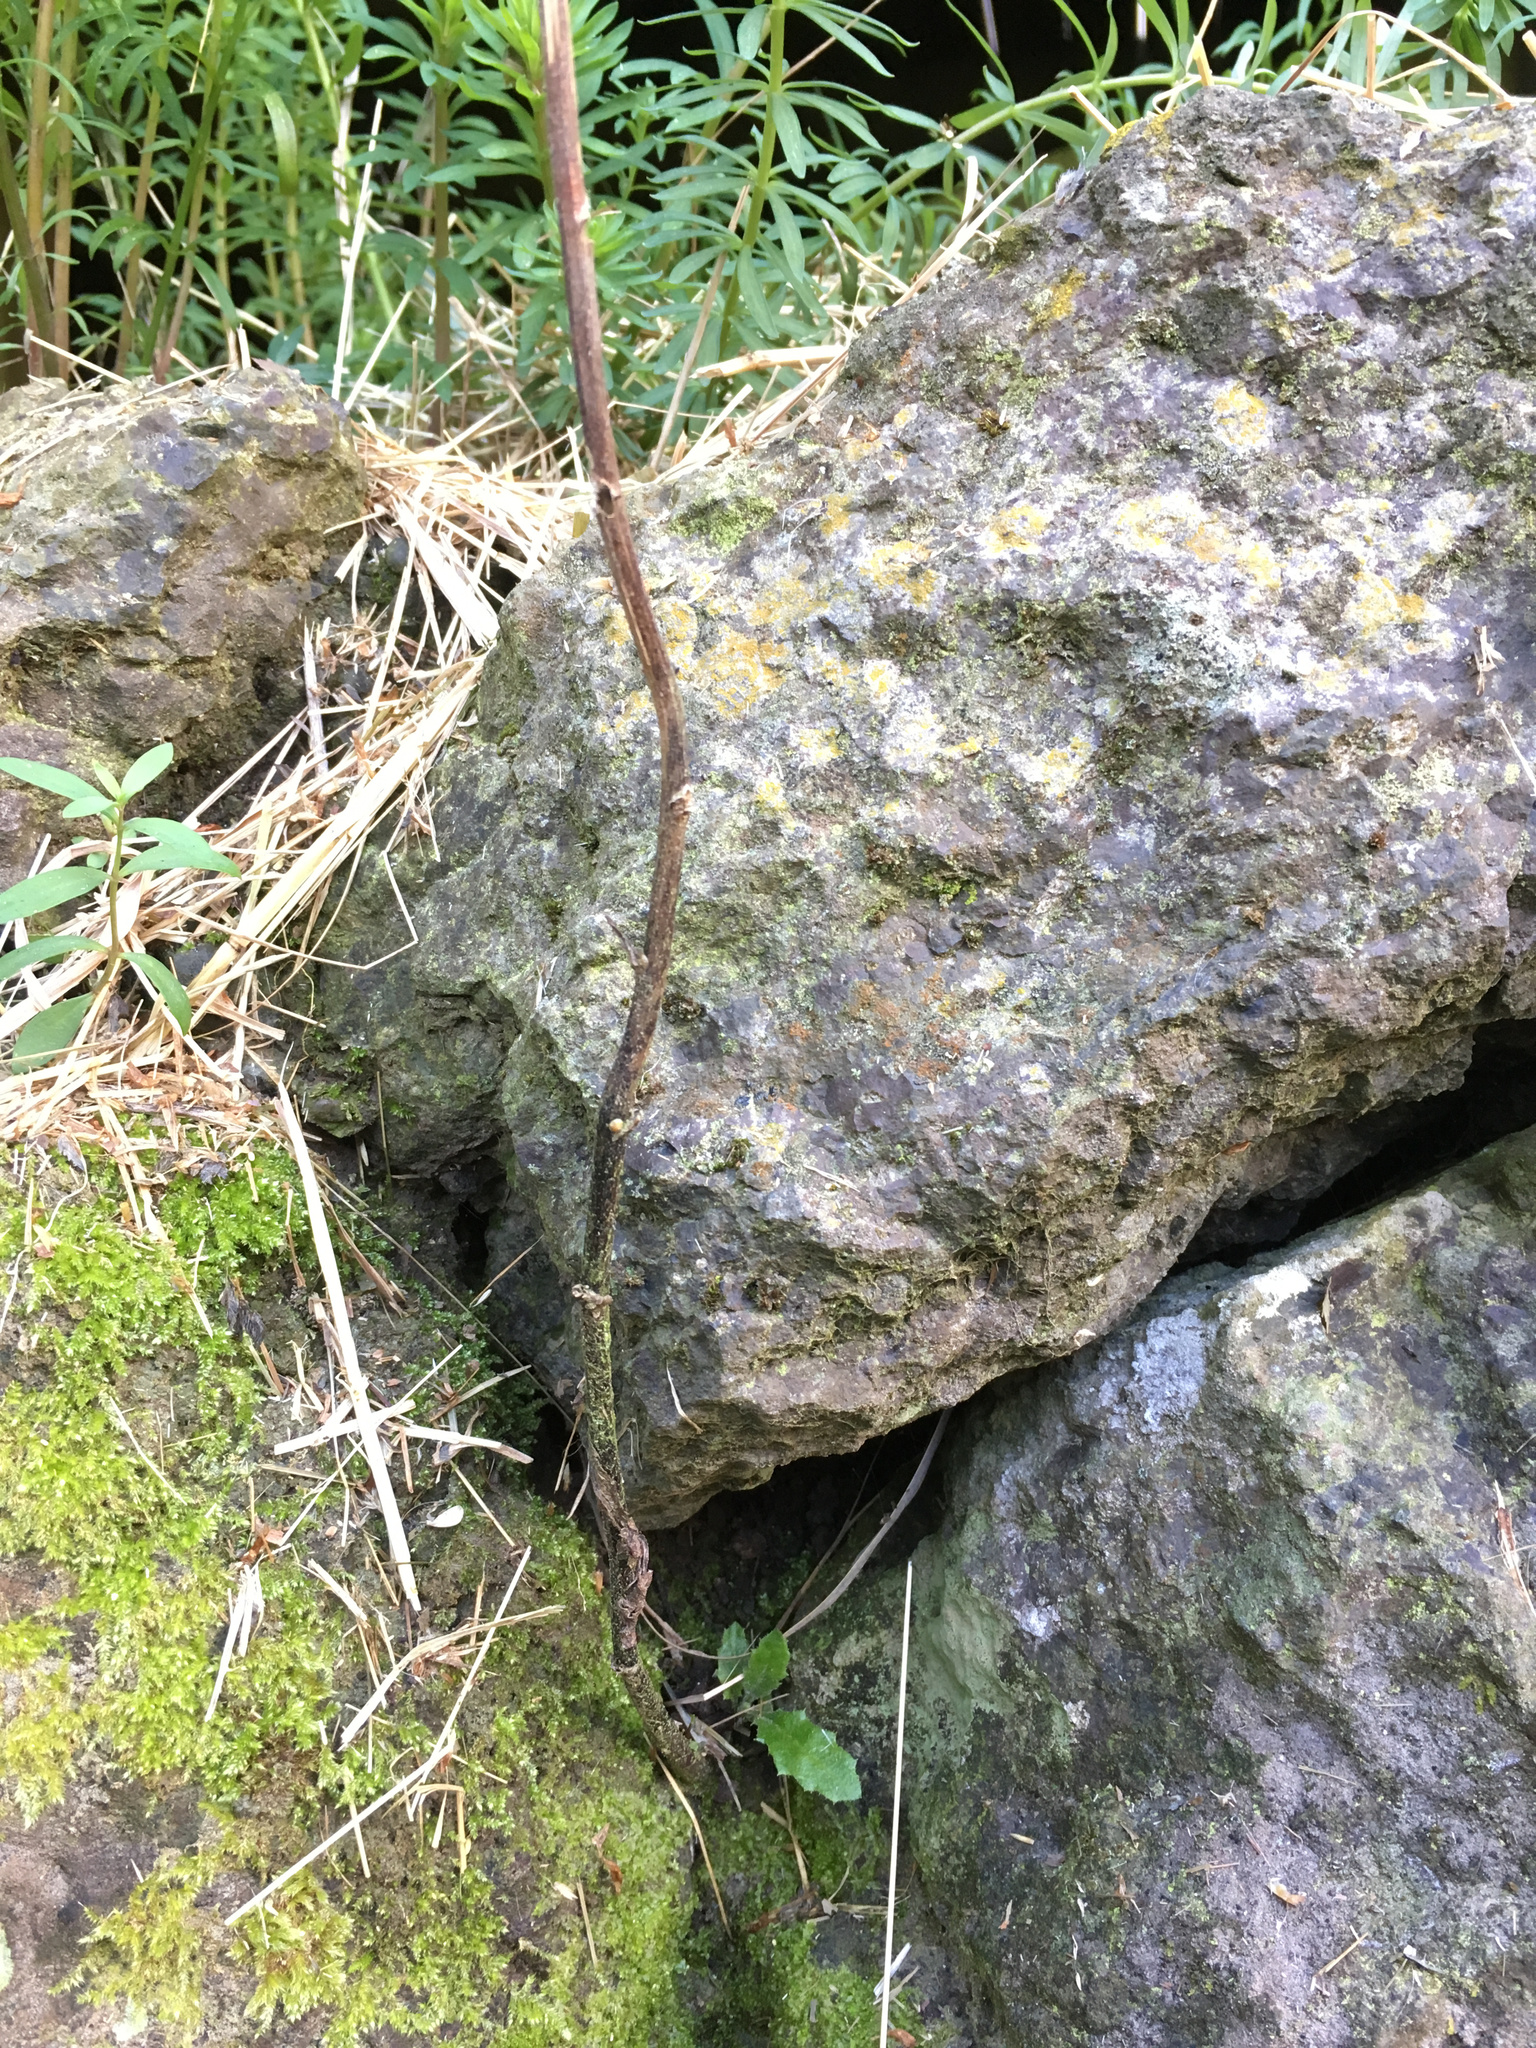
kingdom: Plantae
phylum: Tracheophyta
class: Magnoliopsida
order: Asterales
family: Asteraceae
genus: Senecio
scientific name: Senecio minimus
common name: Toothed fireweed
